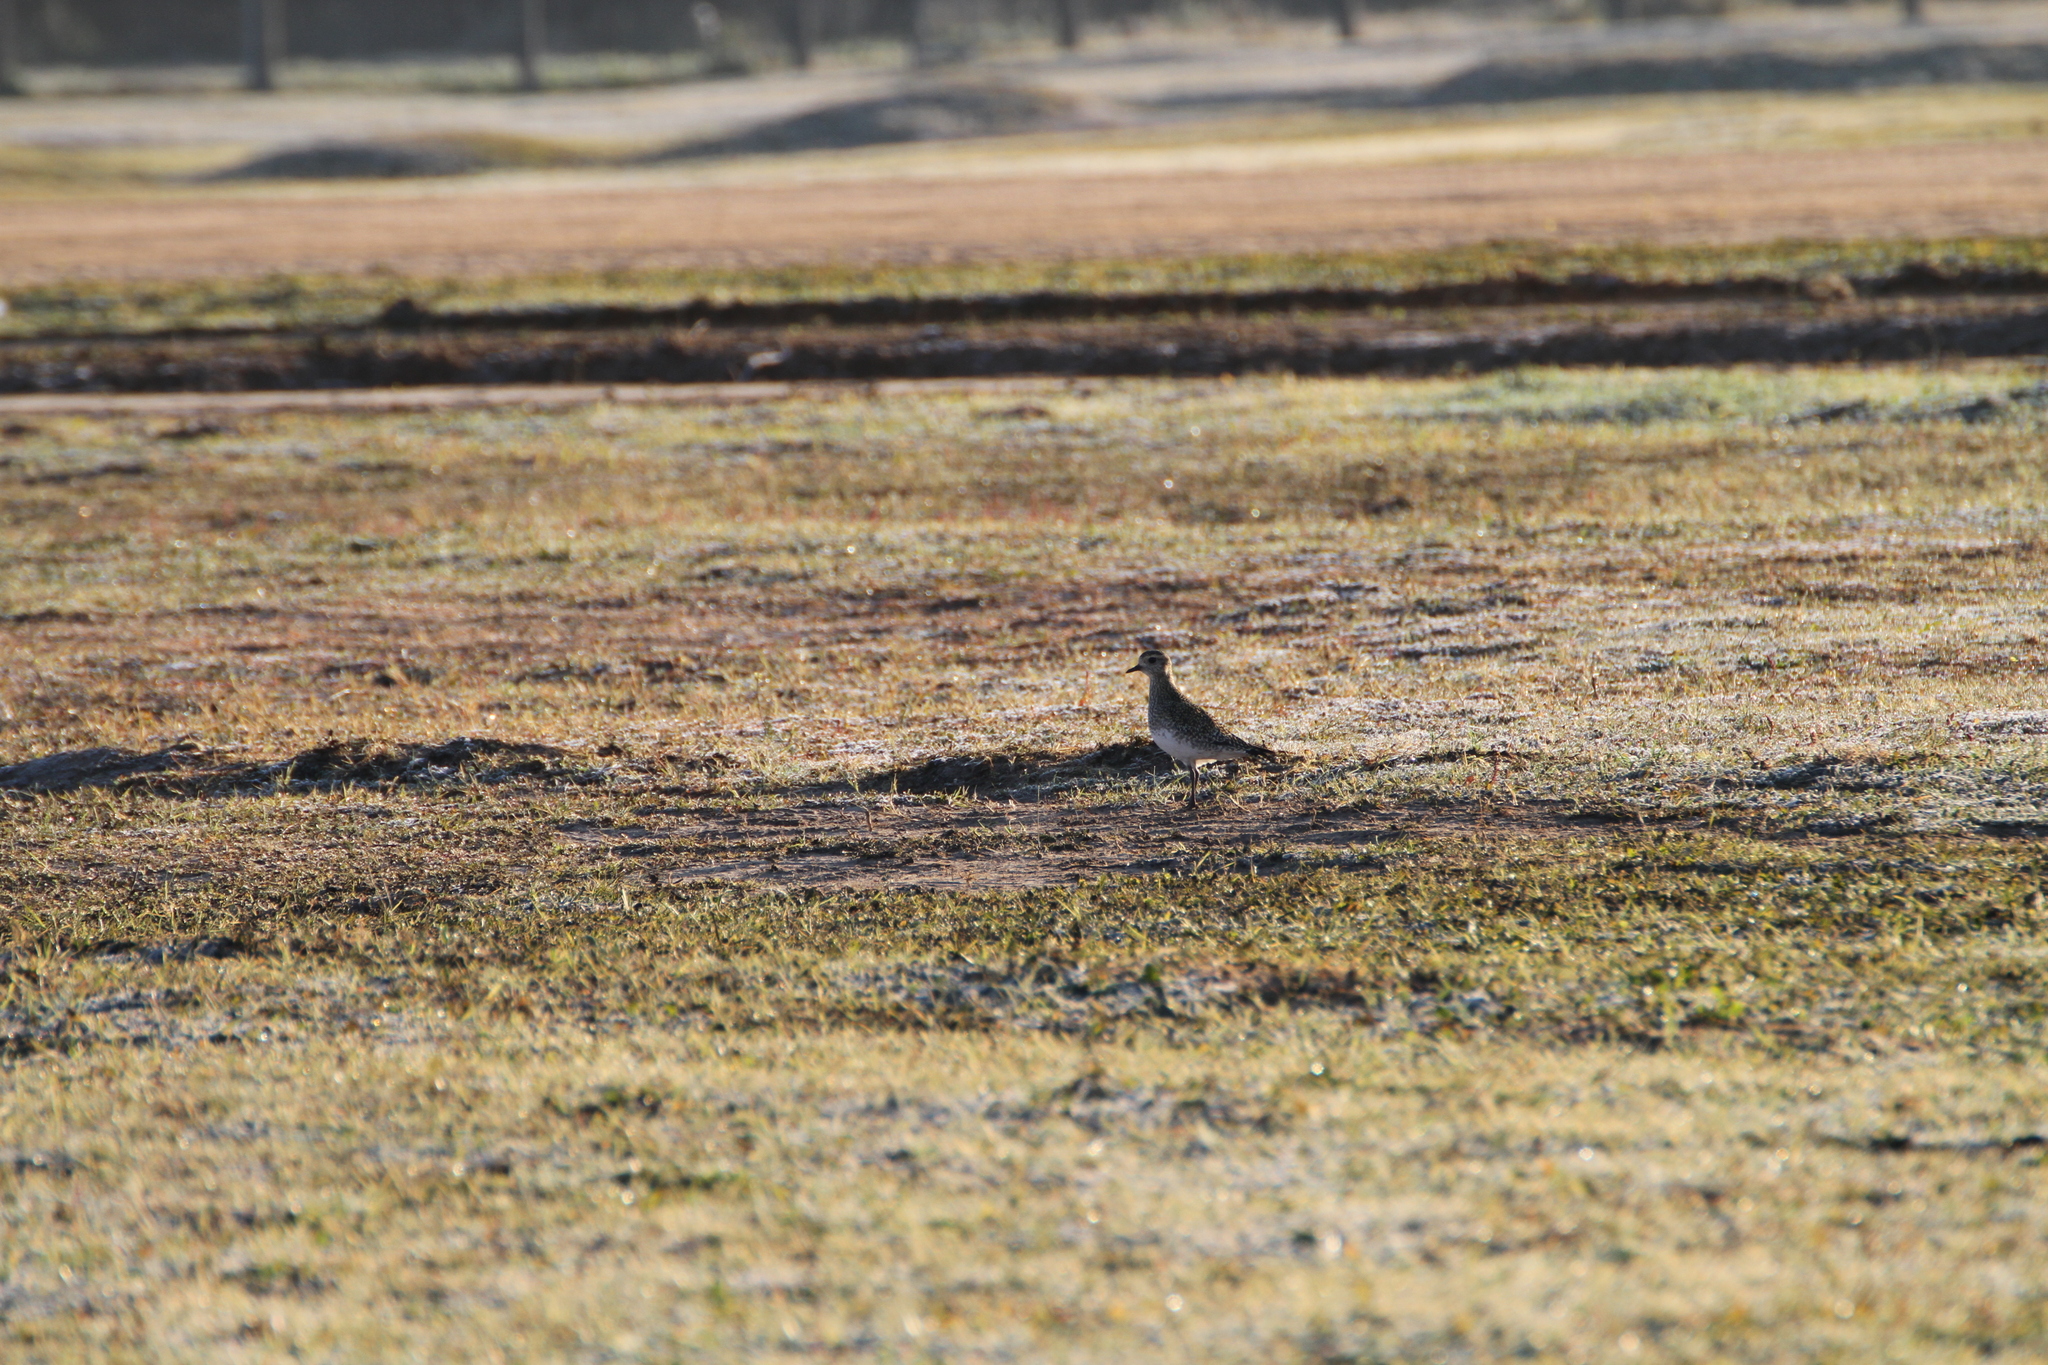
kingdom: Animalia
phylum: Chordata
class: Aves
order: Charadriiformes
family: Charadriidae
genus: Pluvialis
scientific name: Pluvialis apricaria
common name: European golden plover
